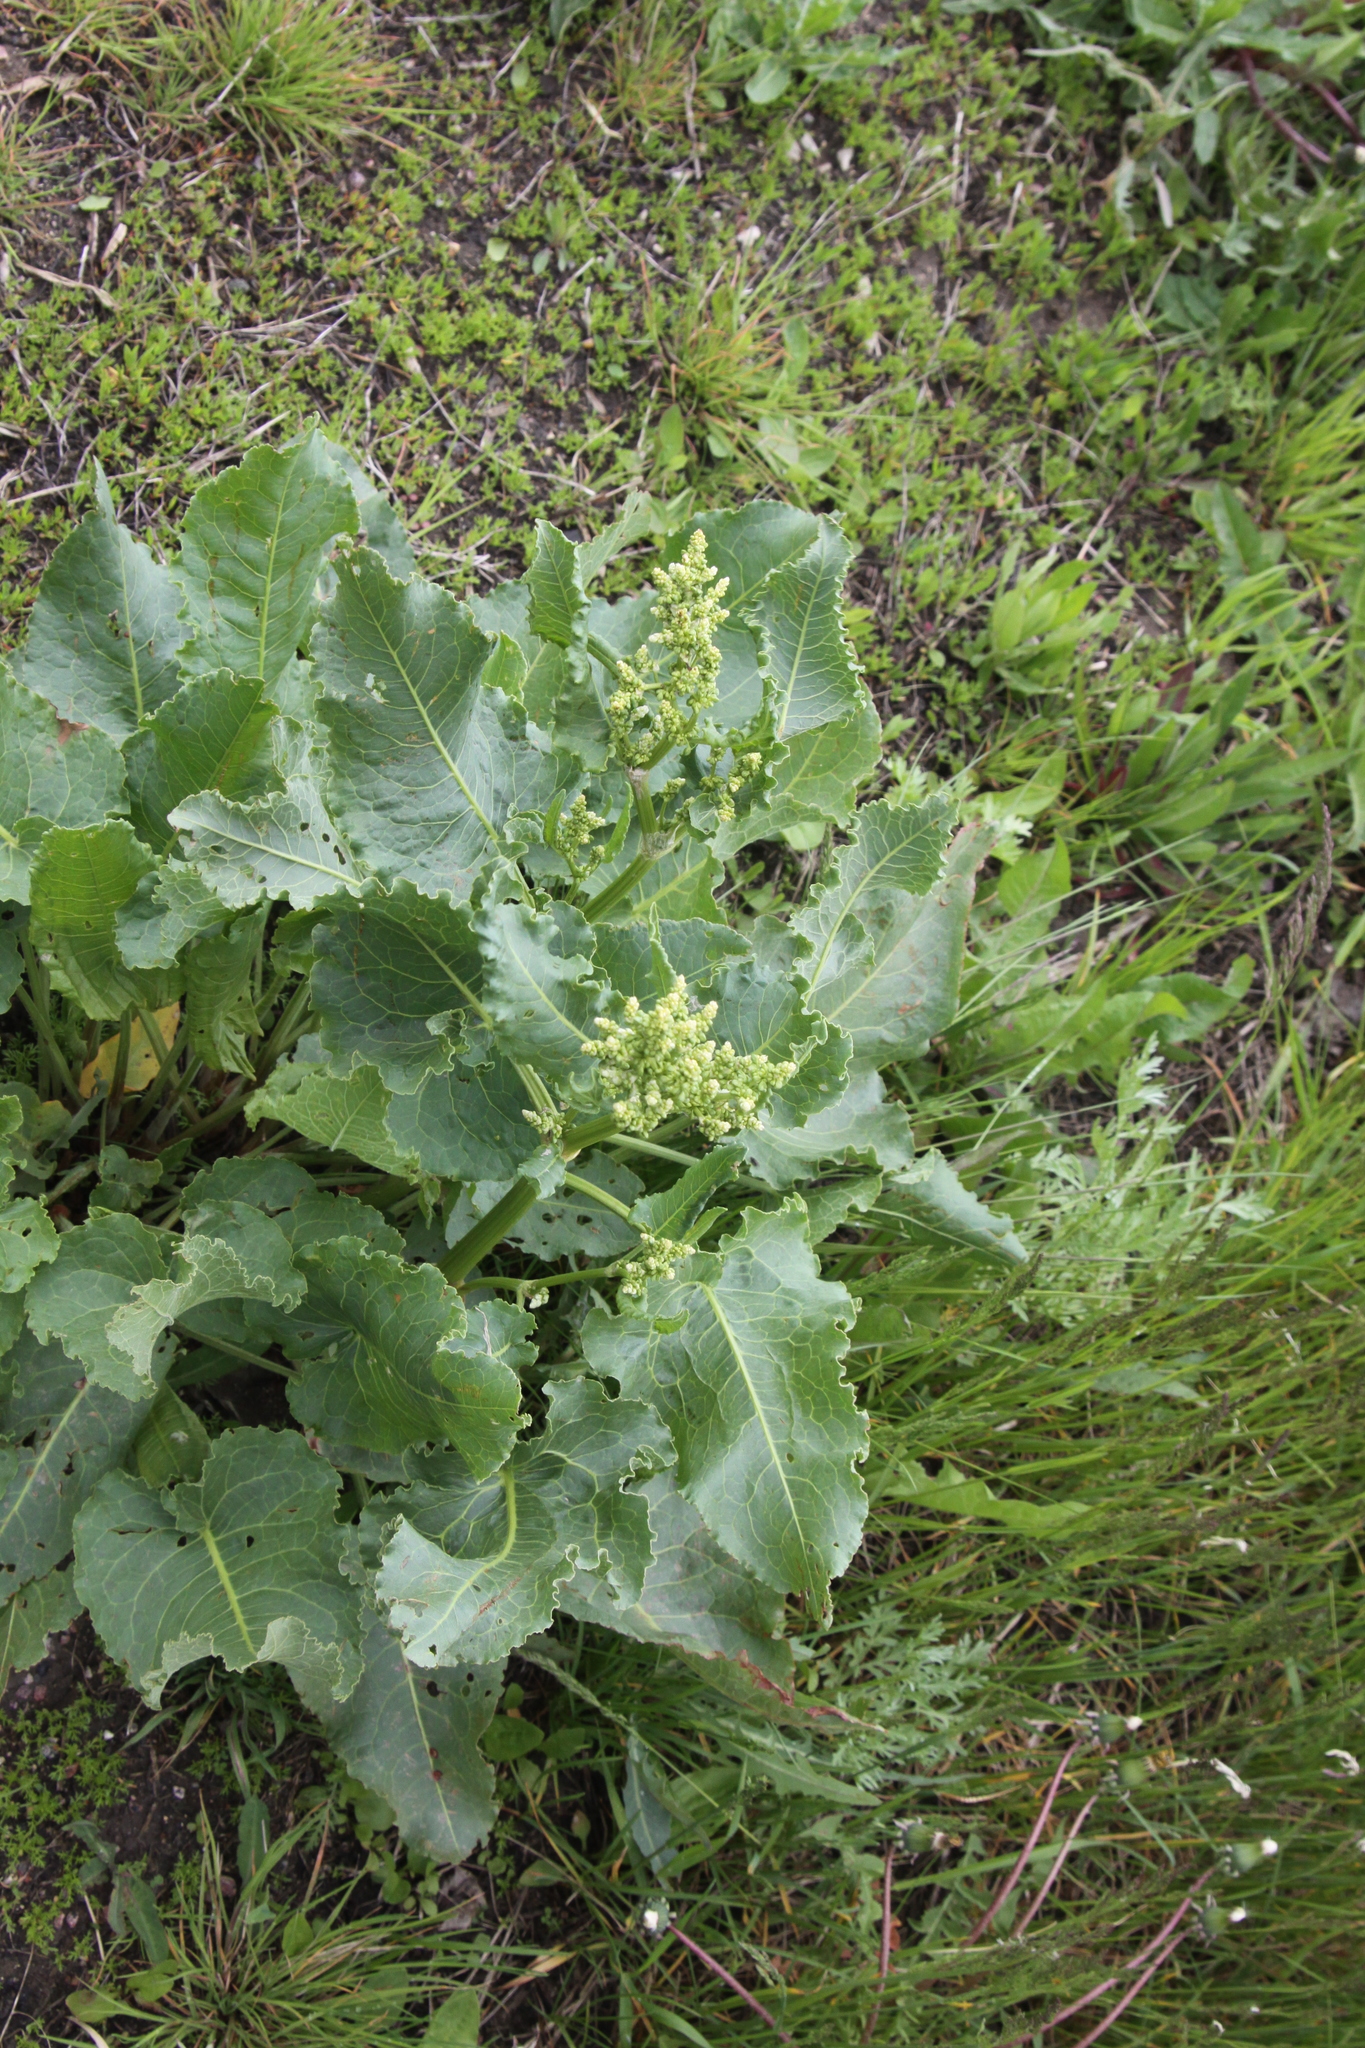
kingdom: Plantae
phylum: Tracheophyta
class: Magnoliopsida
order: Caryophyllales
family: Polygonaceae
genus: Rumex
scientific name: Rumex confertus
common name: Russian dock
